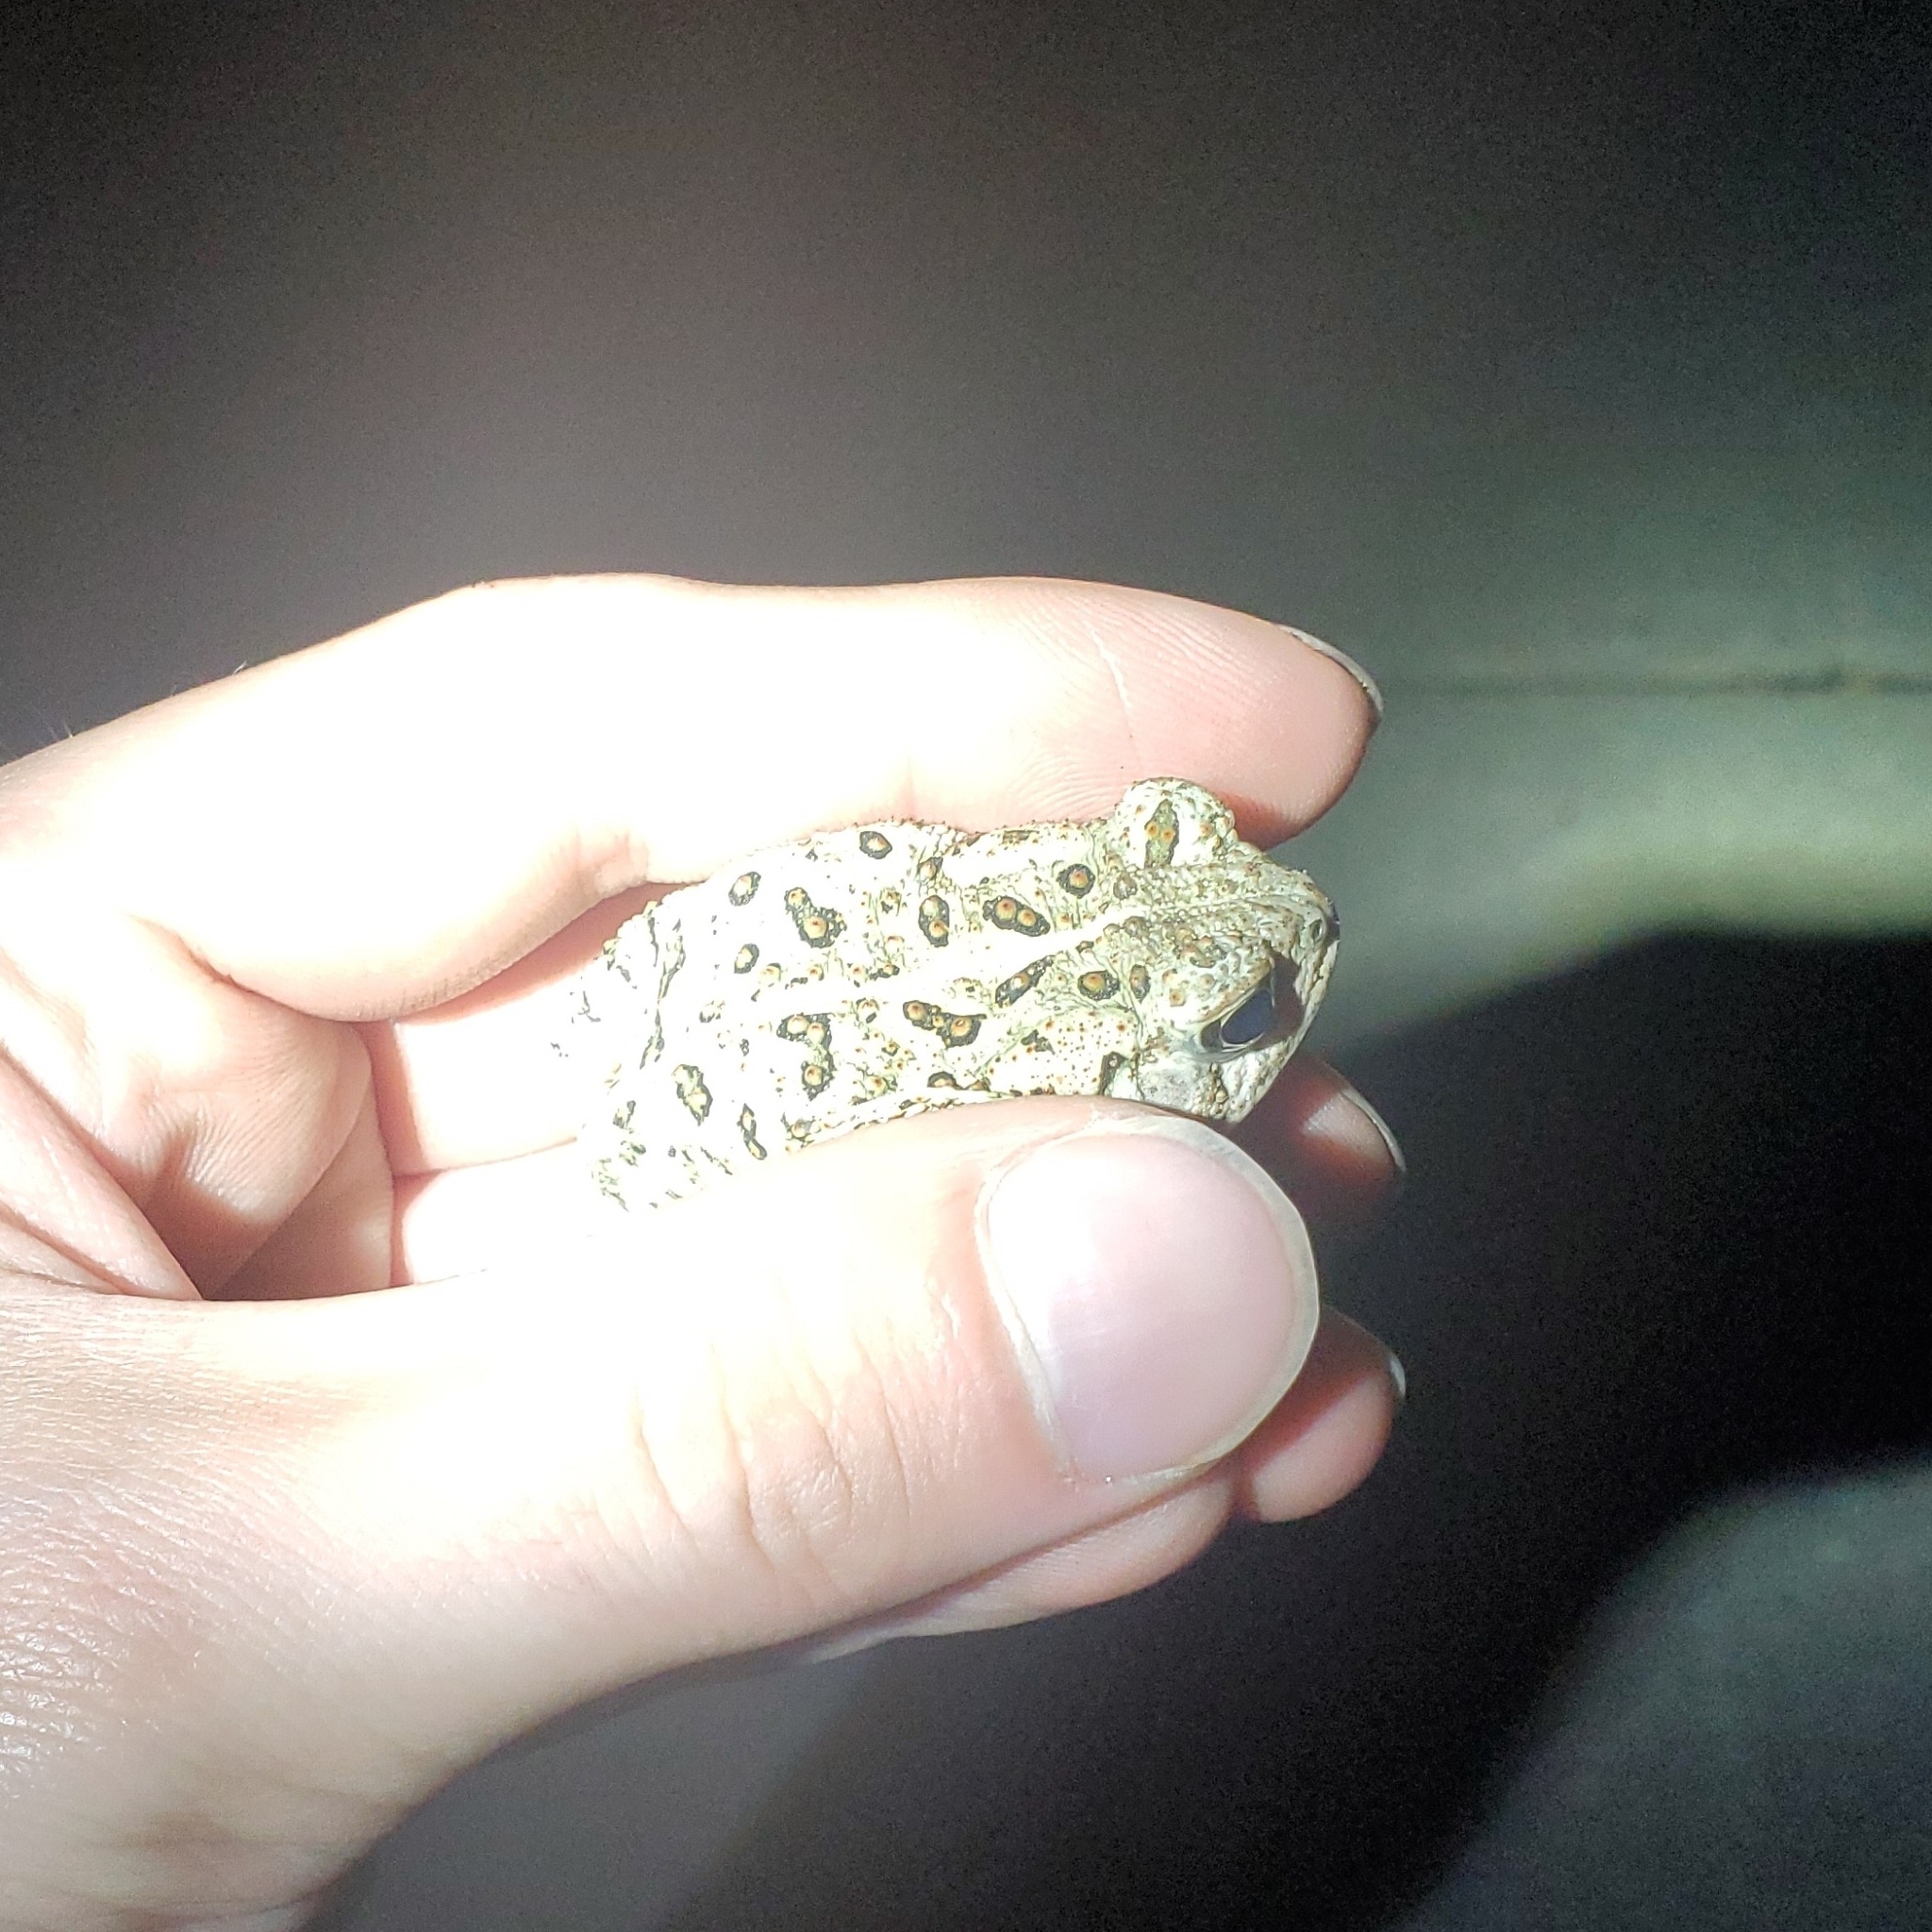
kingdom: Animalia
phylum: Chordata
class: Amphibia
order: Anura
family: Bufonidae
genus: Anaxyrus
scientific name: Anaxyrus woodhousii
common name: Woodhouse's toad
